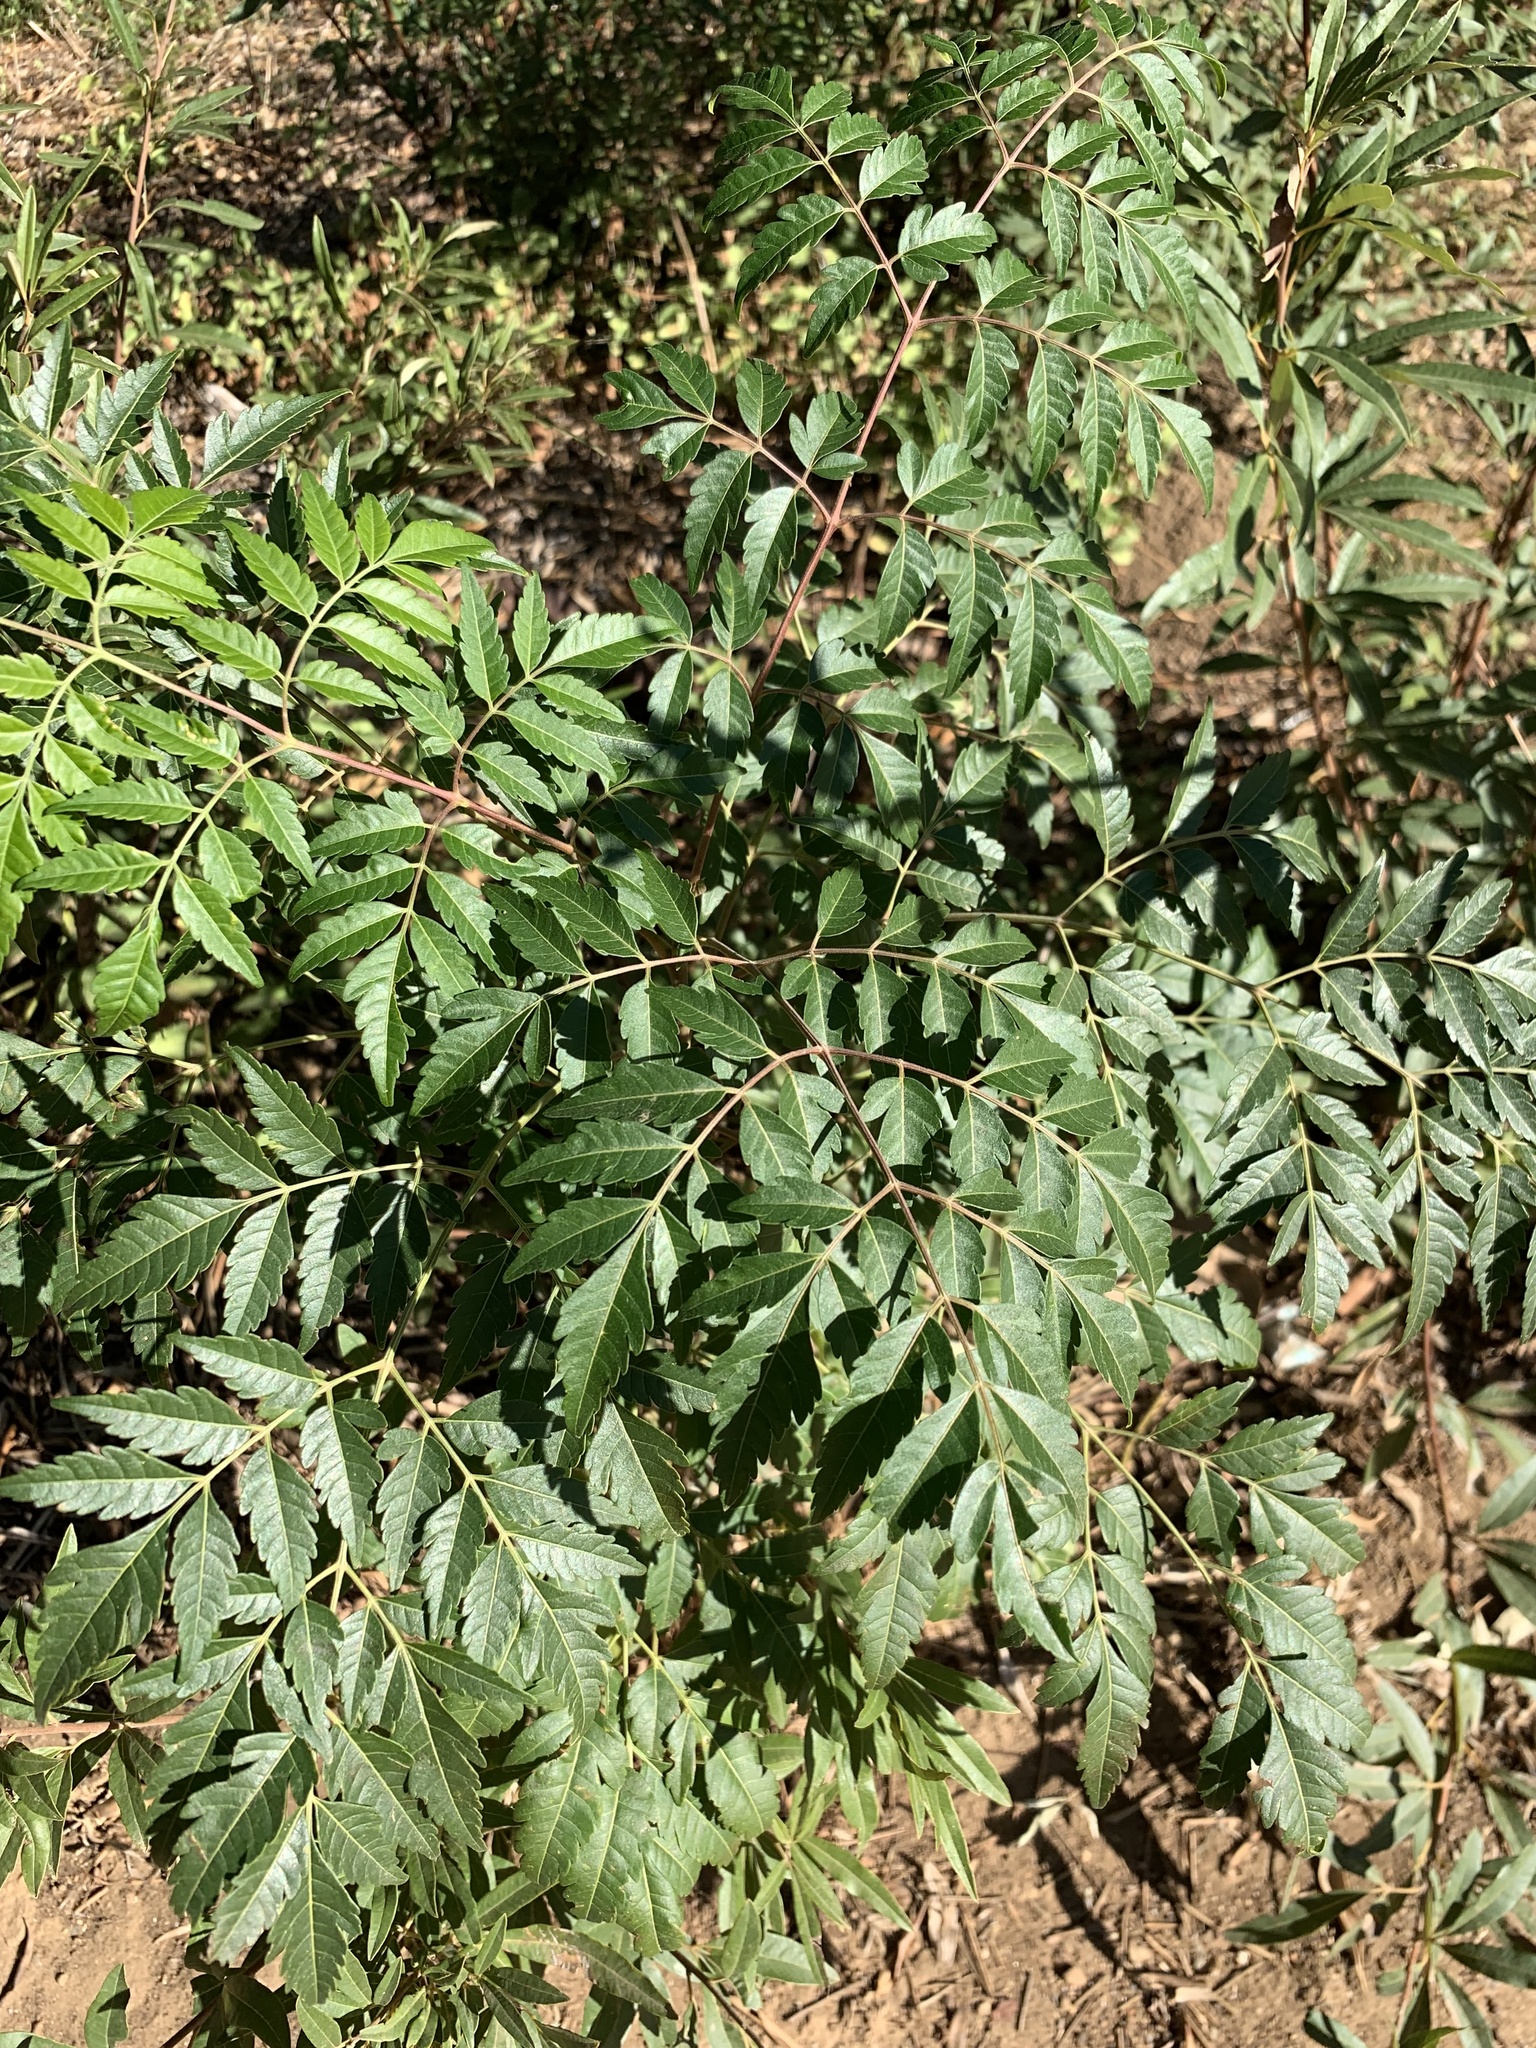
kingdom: Plantae
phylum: Tracheophyta
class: Magnoliopsida
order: Sapindales
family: Meliaceae
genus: Melia
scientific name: Melia azedarach
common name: Chinaberrytree
